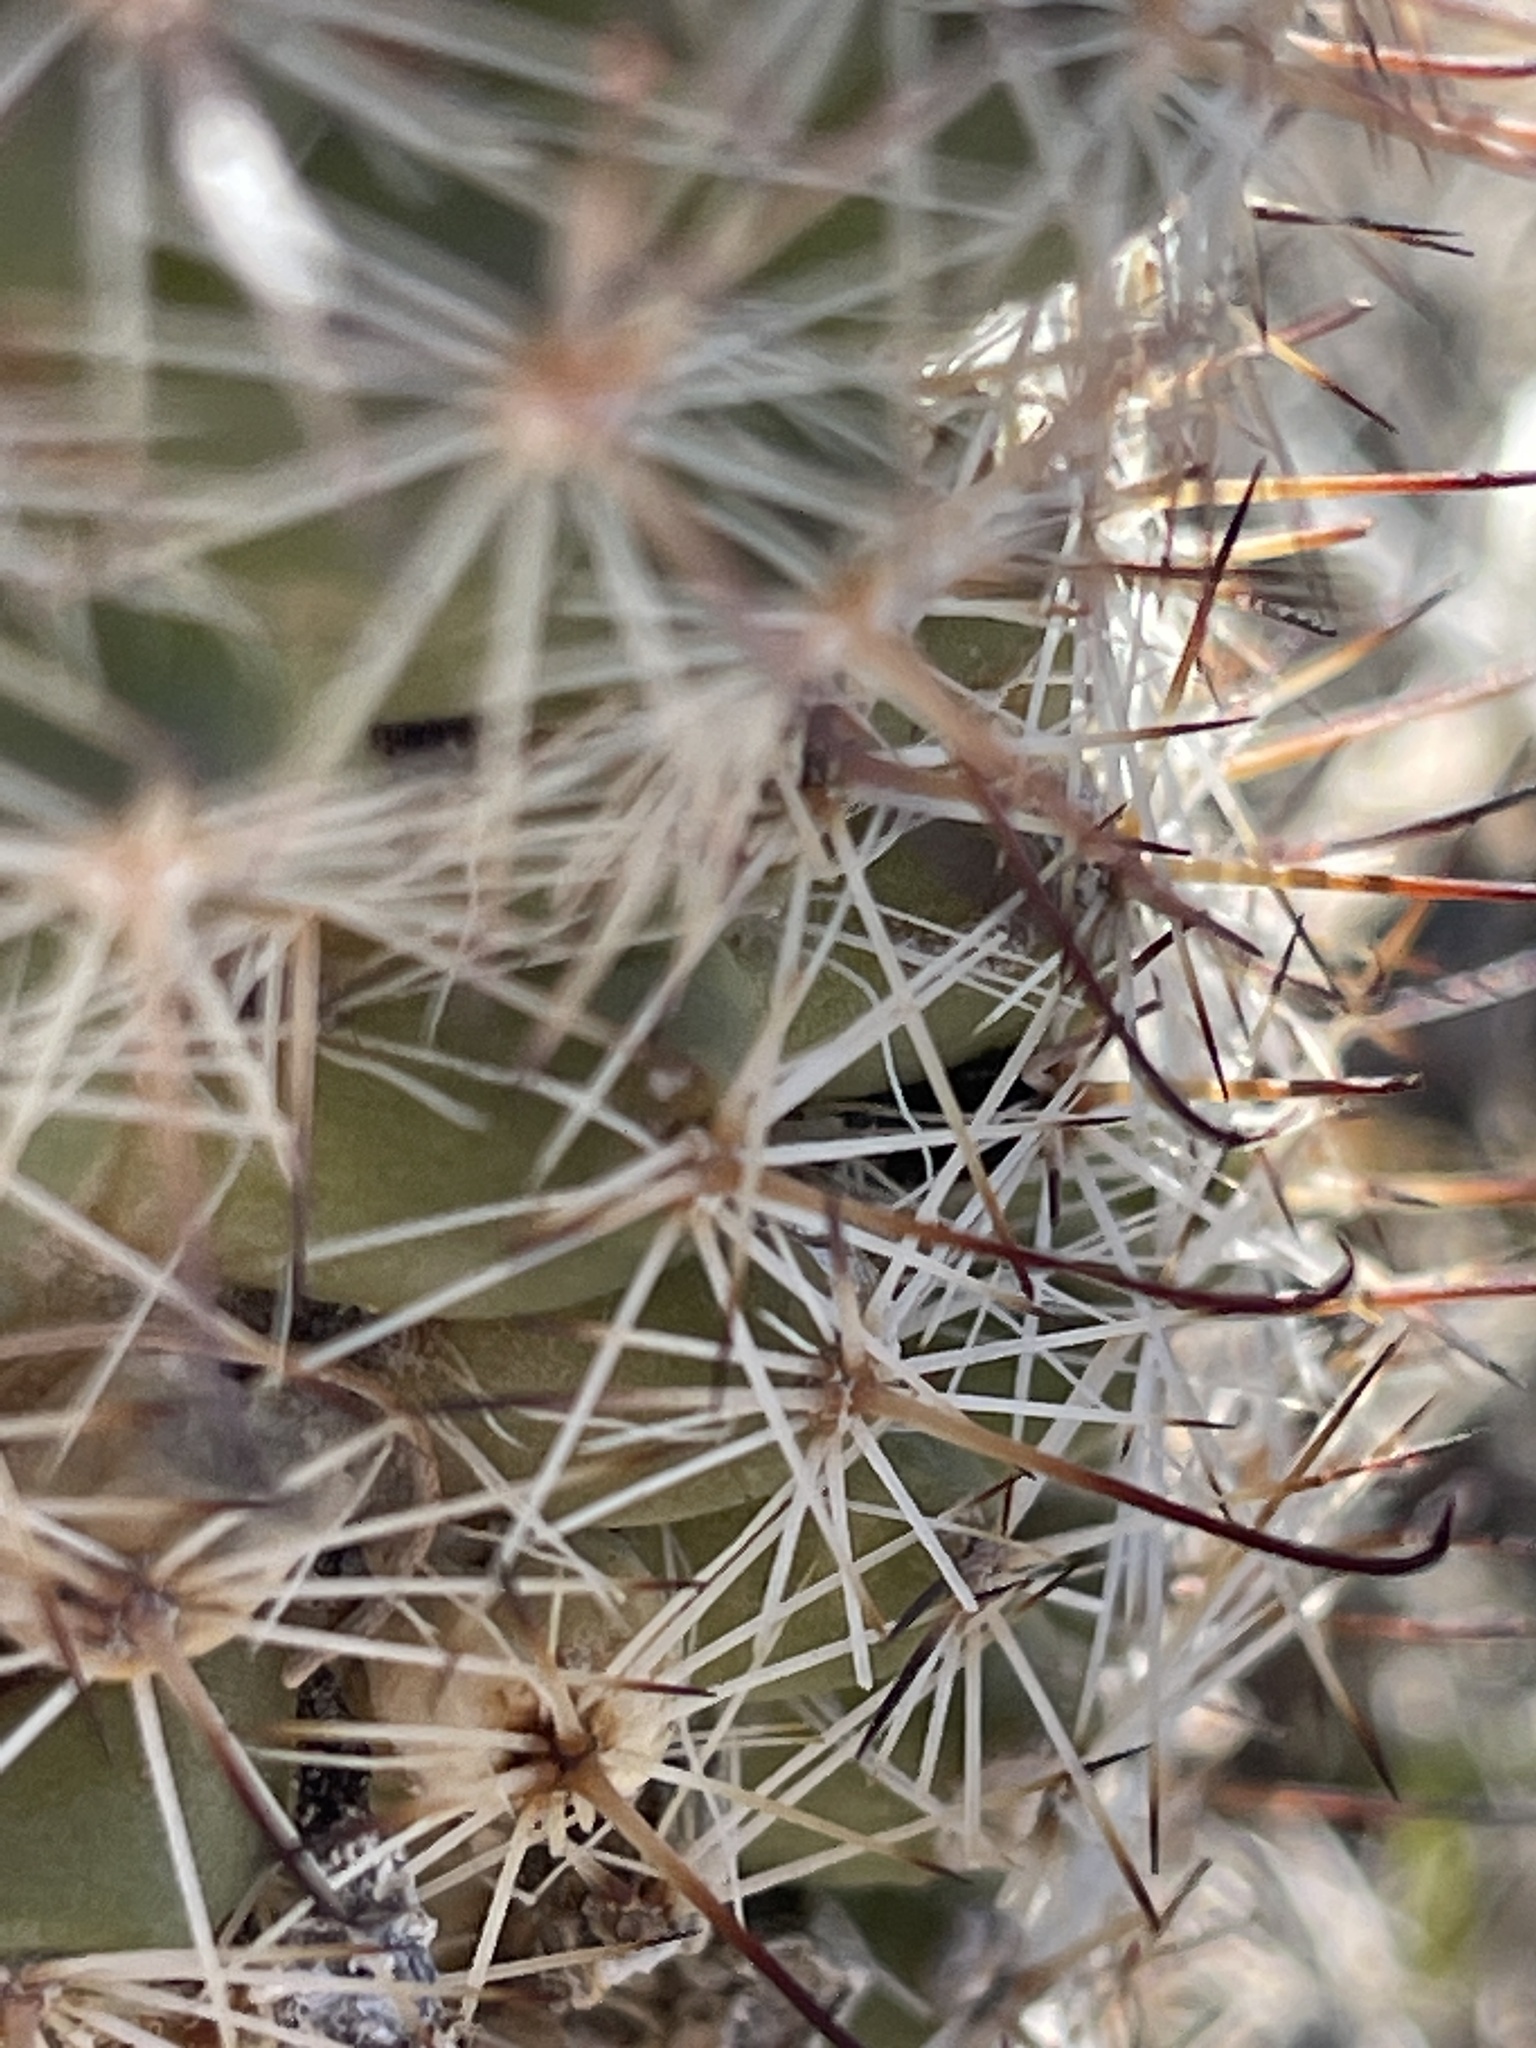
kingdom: Plantae
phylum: Tracheophyta
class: Magnoliopsida
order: Caryophyllales
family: Cactaceae
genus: Cochemiea
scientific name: Cochemiea dioica
